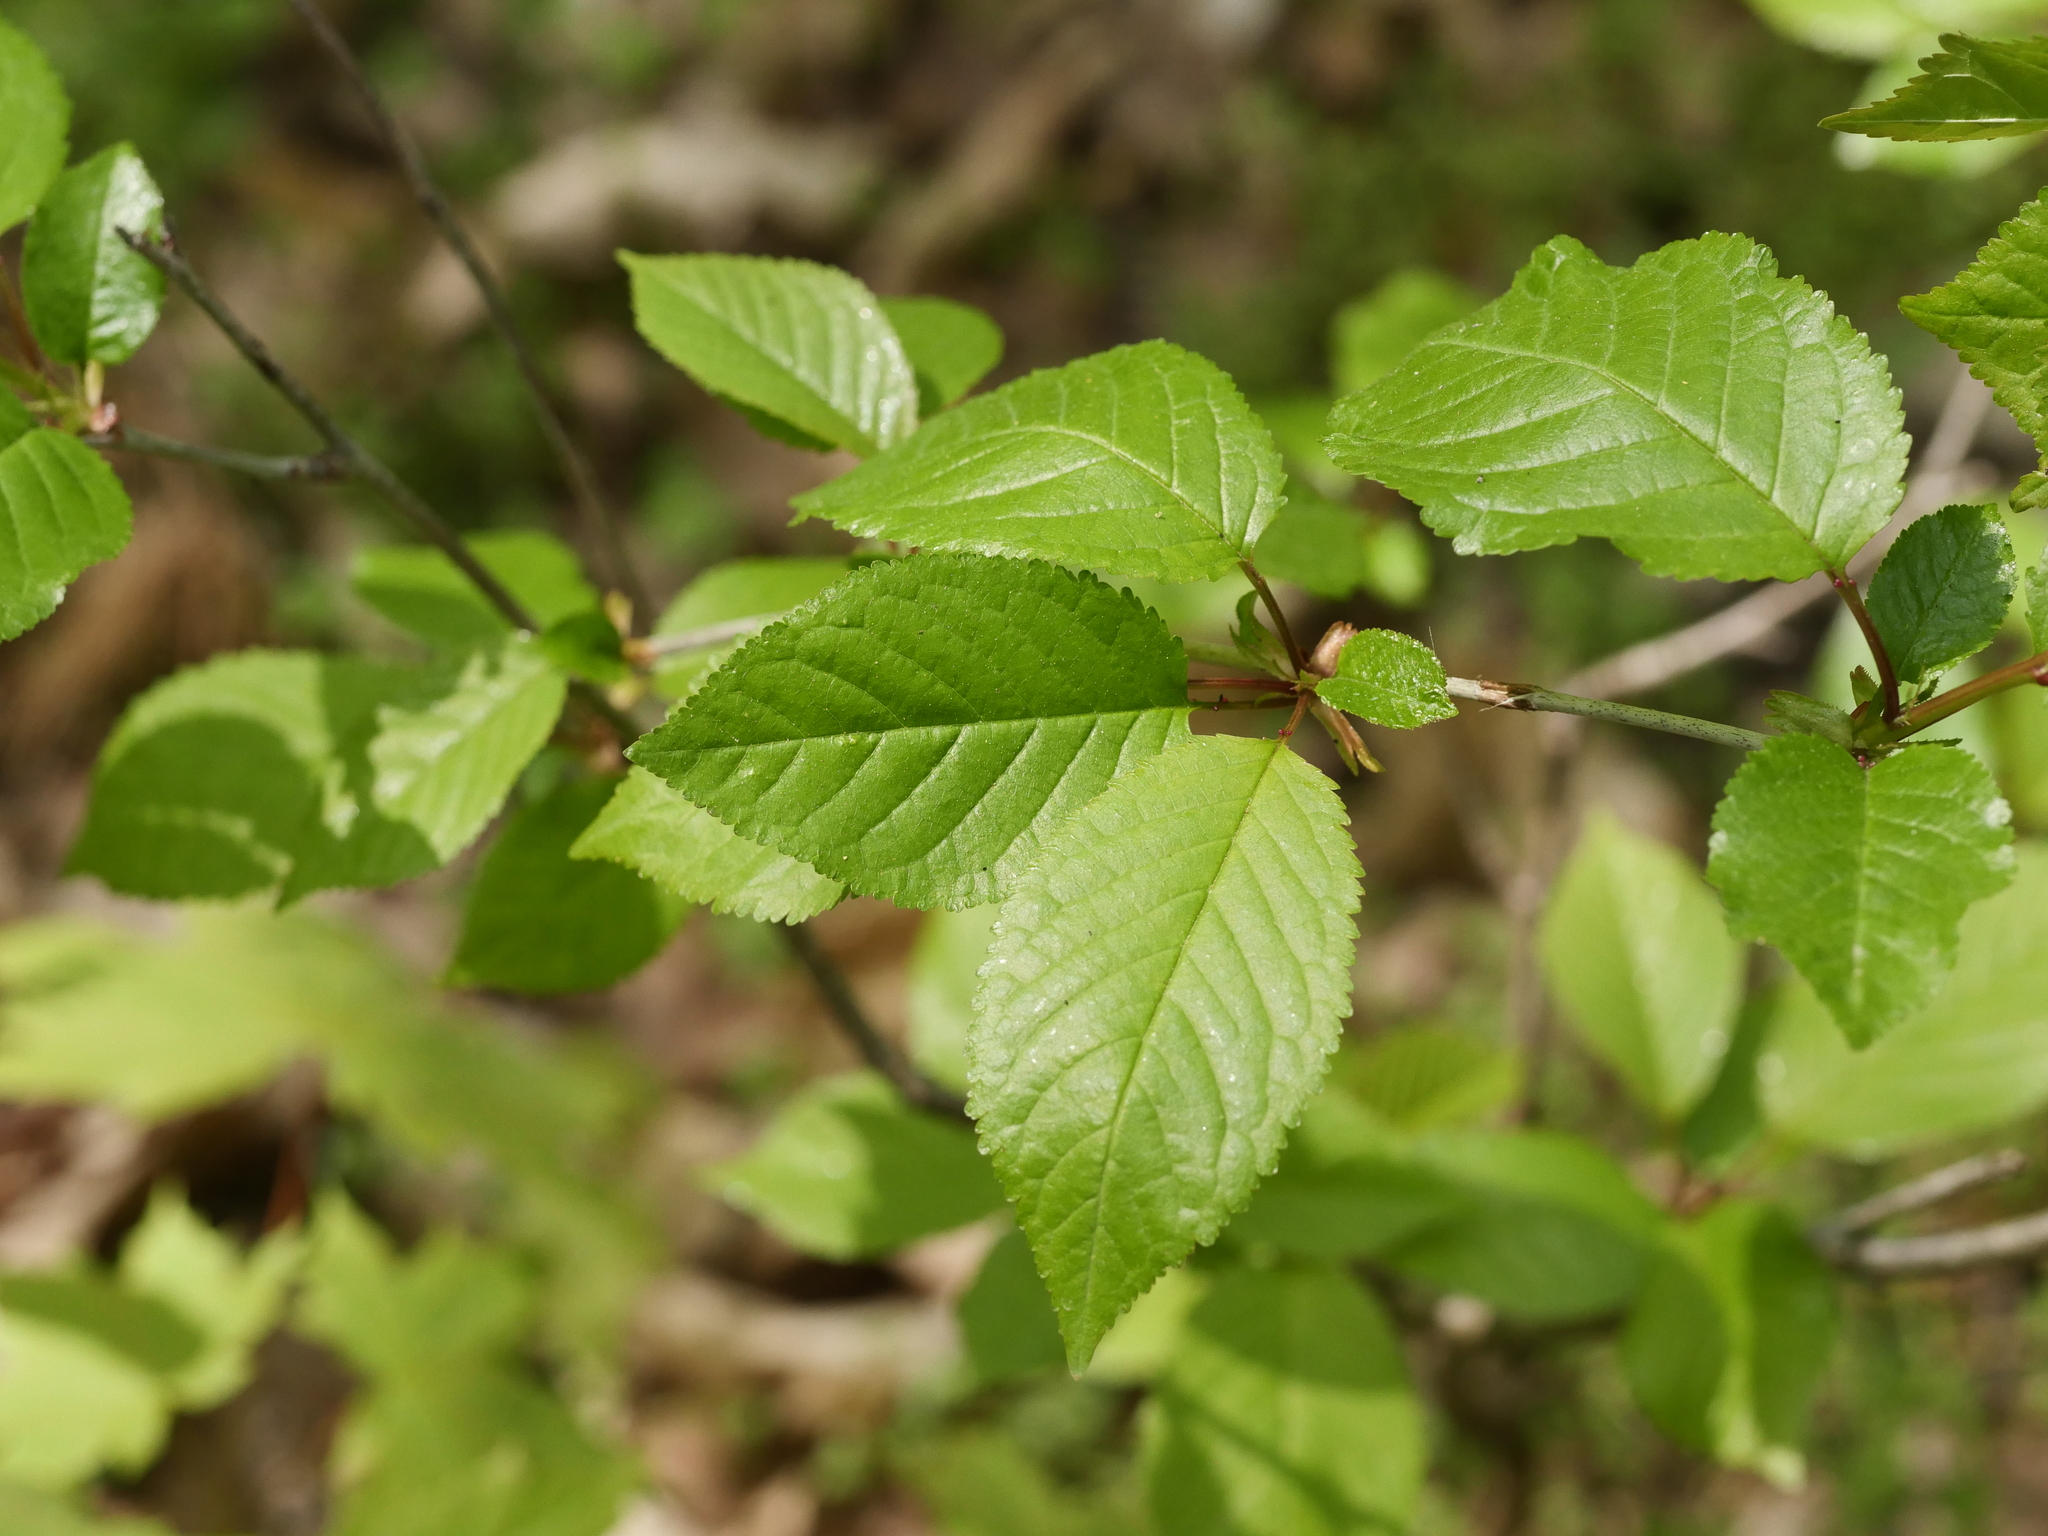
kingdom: Plantae
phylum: Tracheophyta
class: Magnoliopsida
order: Rosales
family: Rosaceae
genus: Prunus
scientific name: Prunus avium
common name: Sweet cherry
